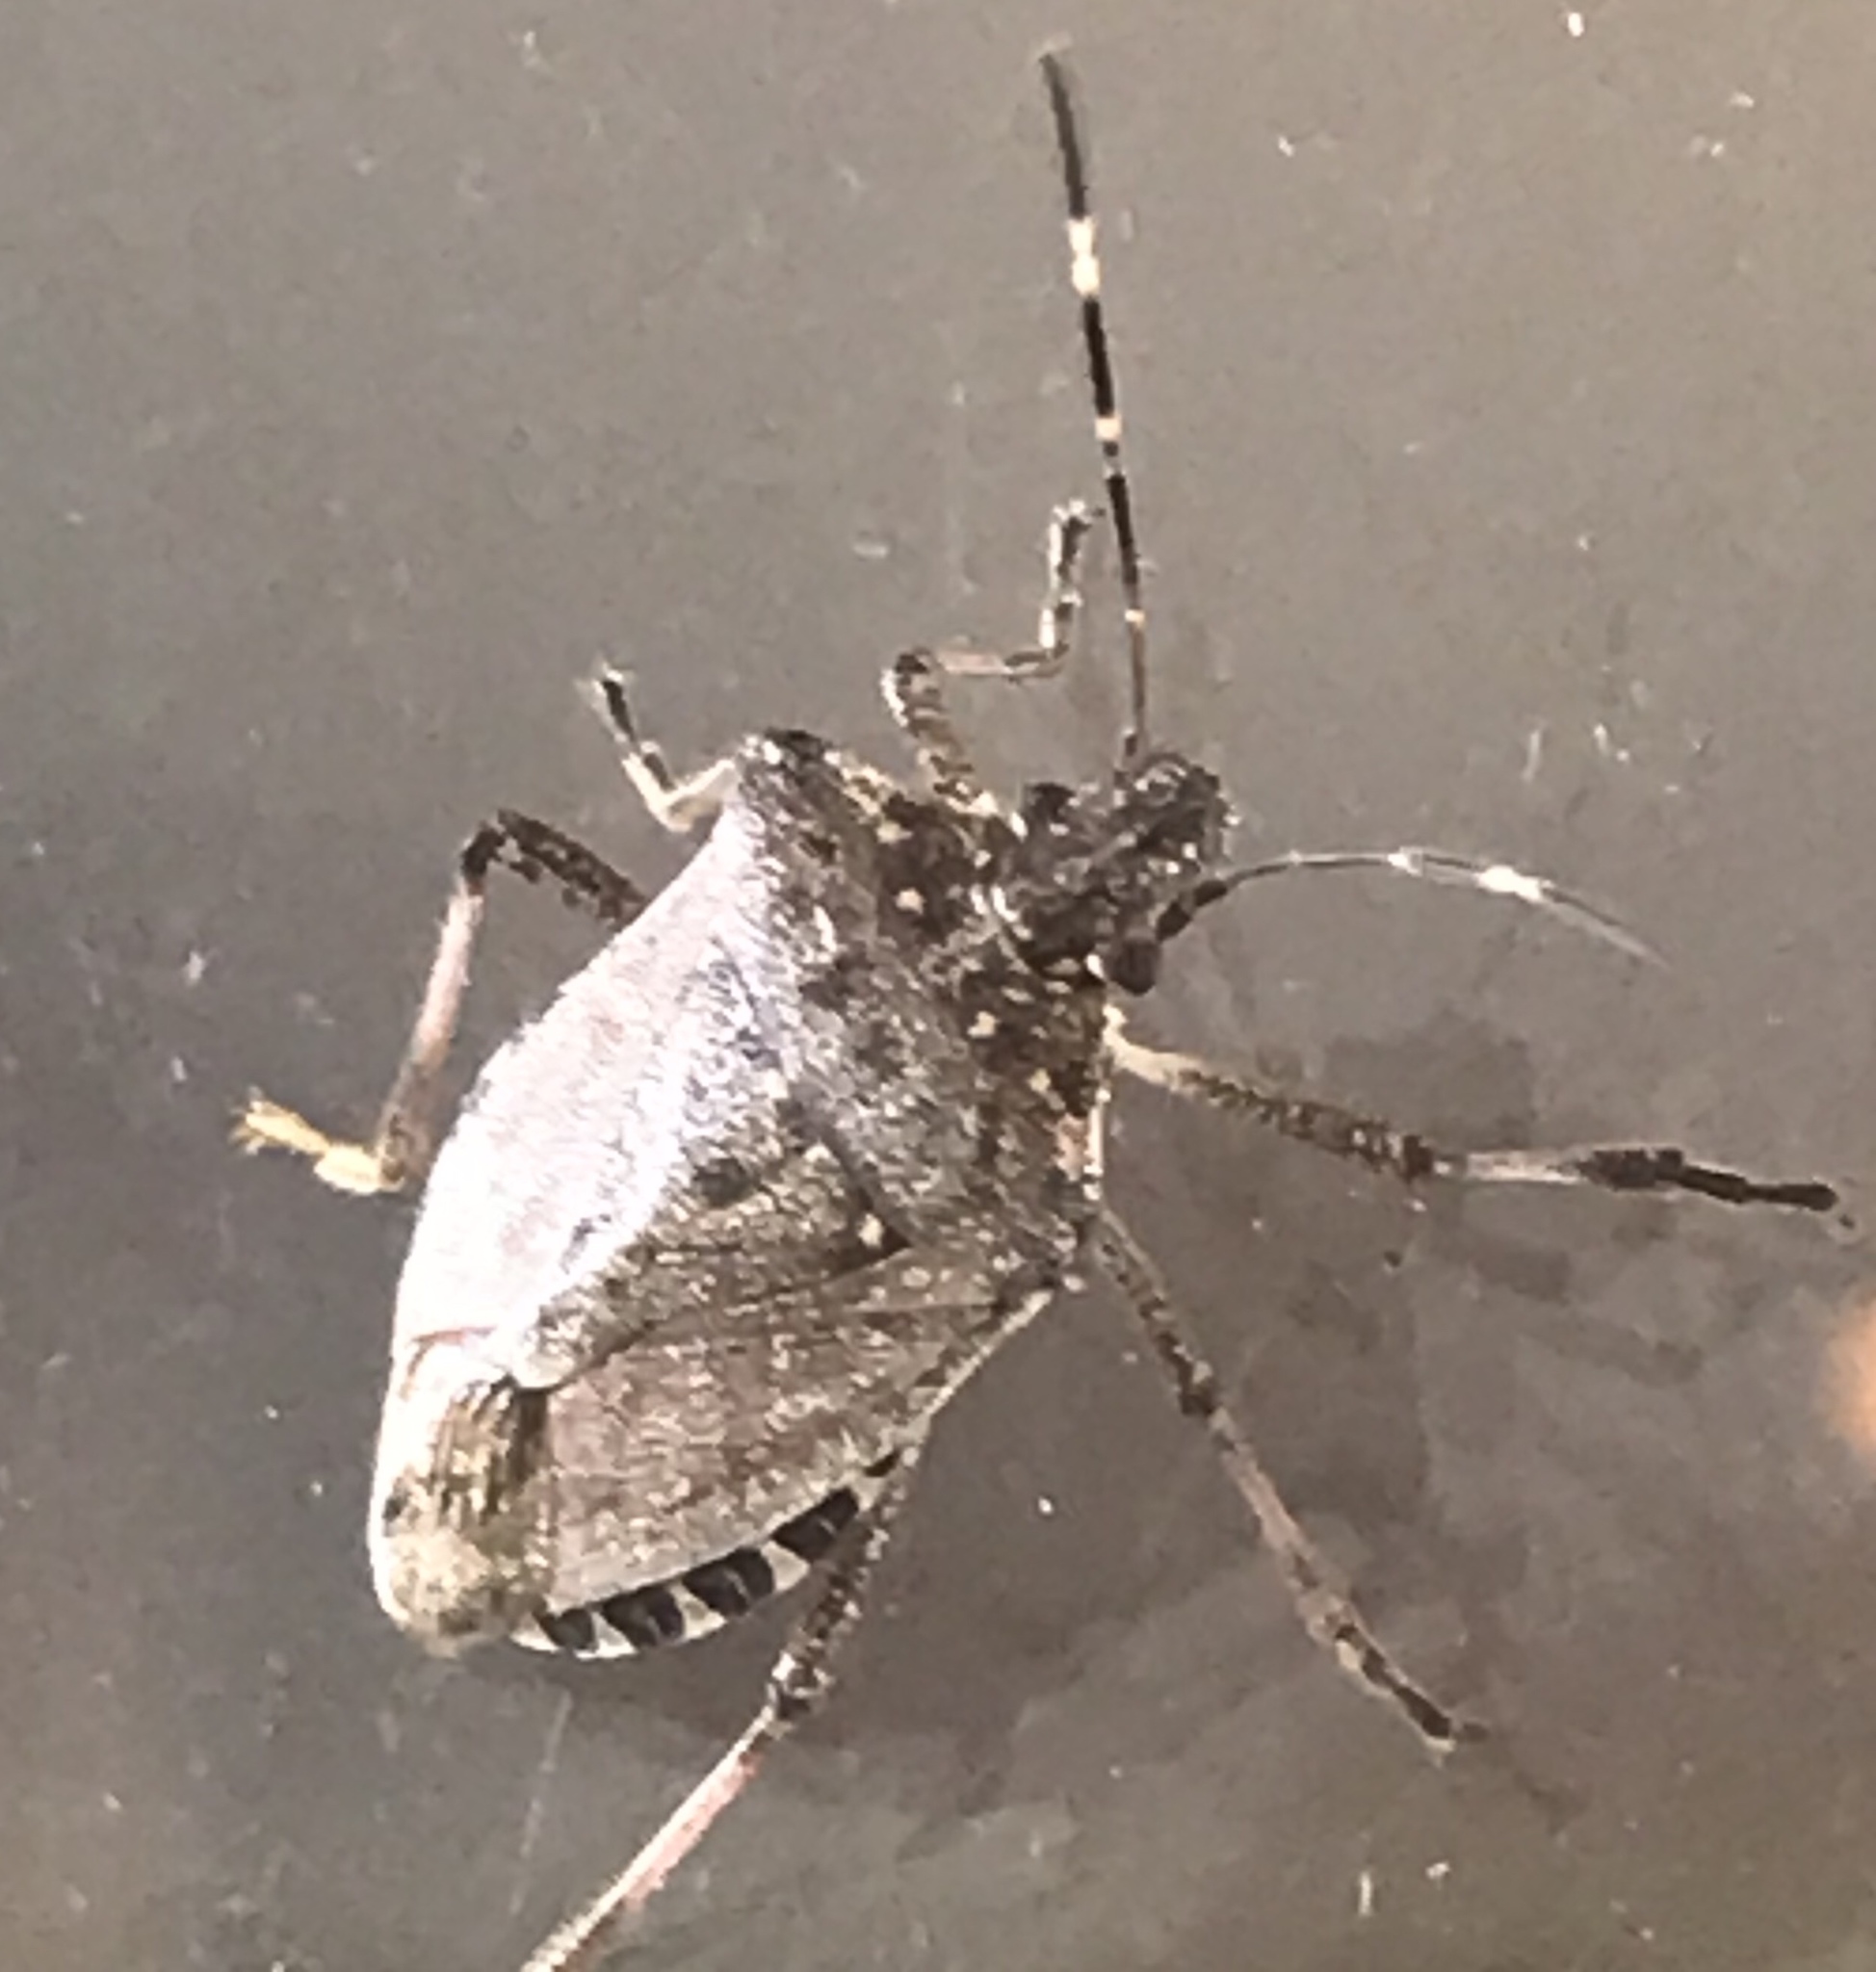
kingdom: Animalia
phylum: Arthropoda
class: Insecta
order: Hemiptera
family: Pentatomidae
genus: Halyomorpha
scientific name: Halyomorpha halys
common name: Brown marmorated stink bug
